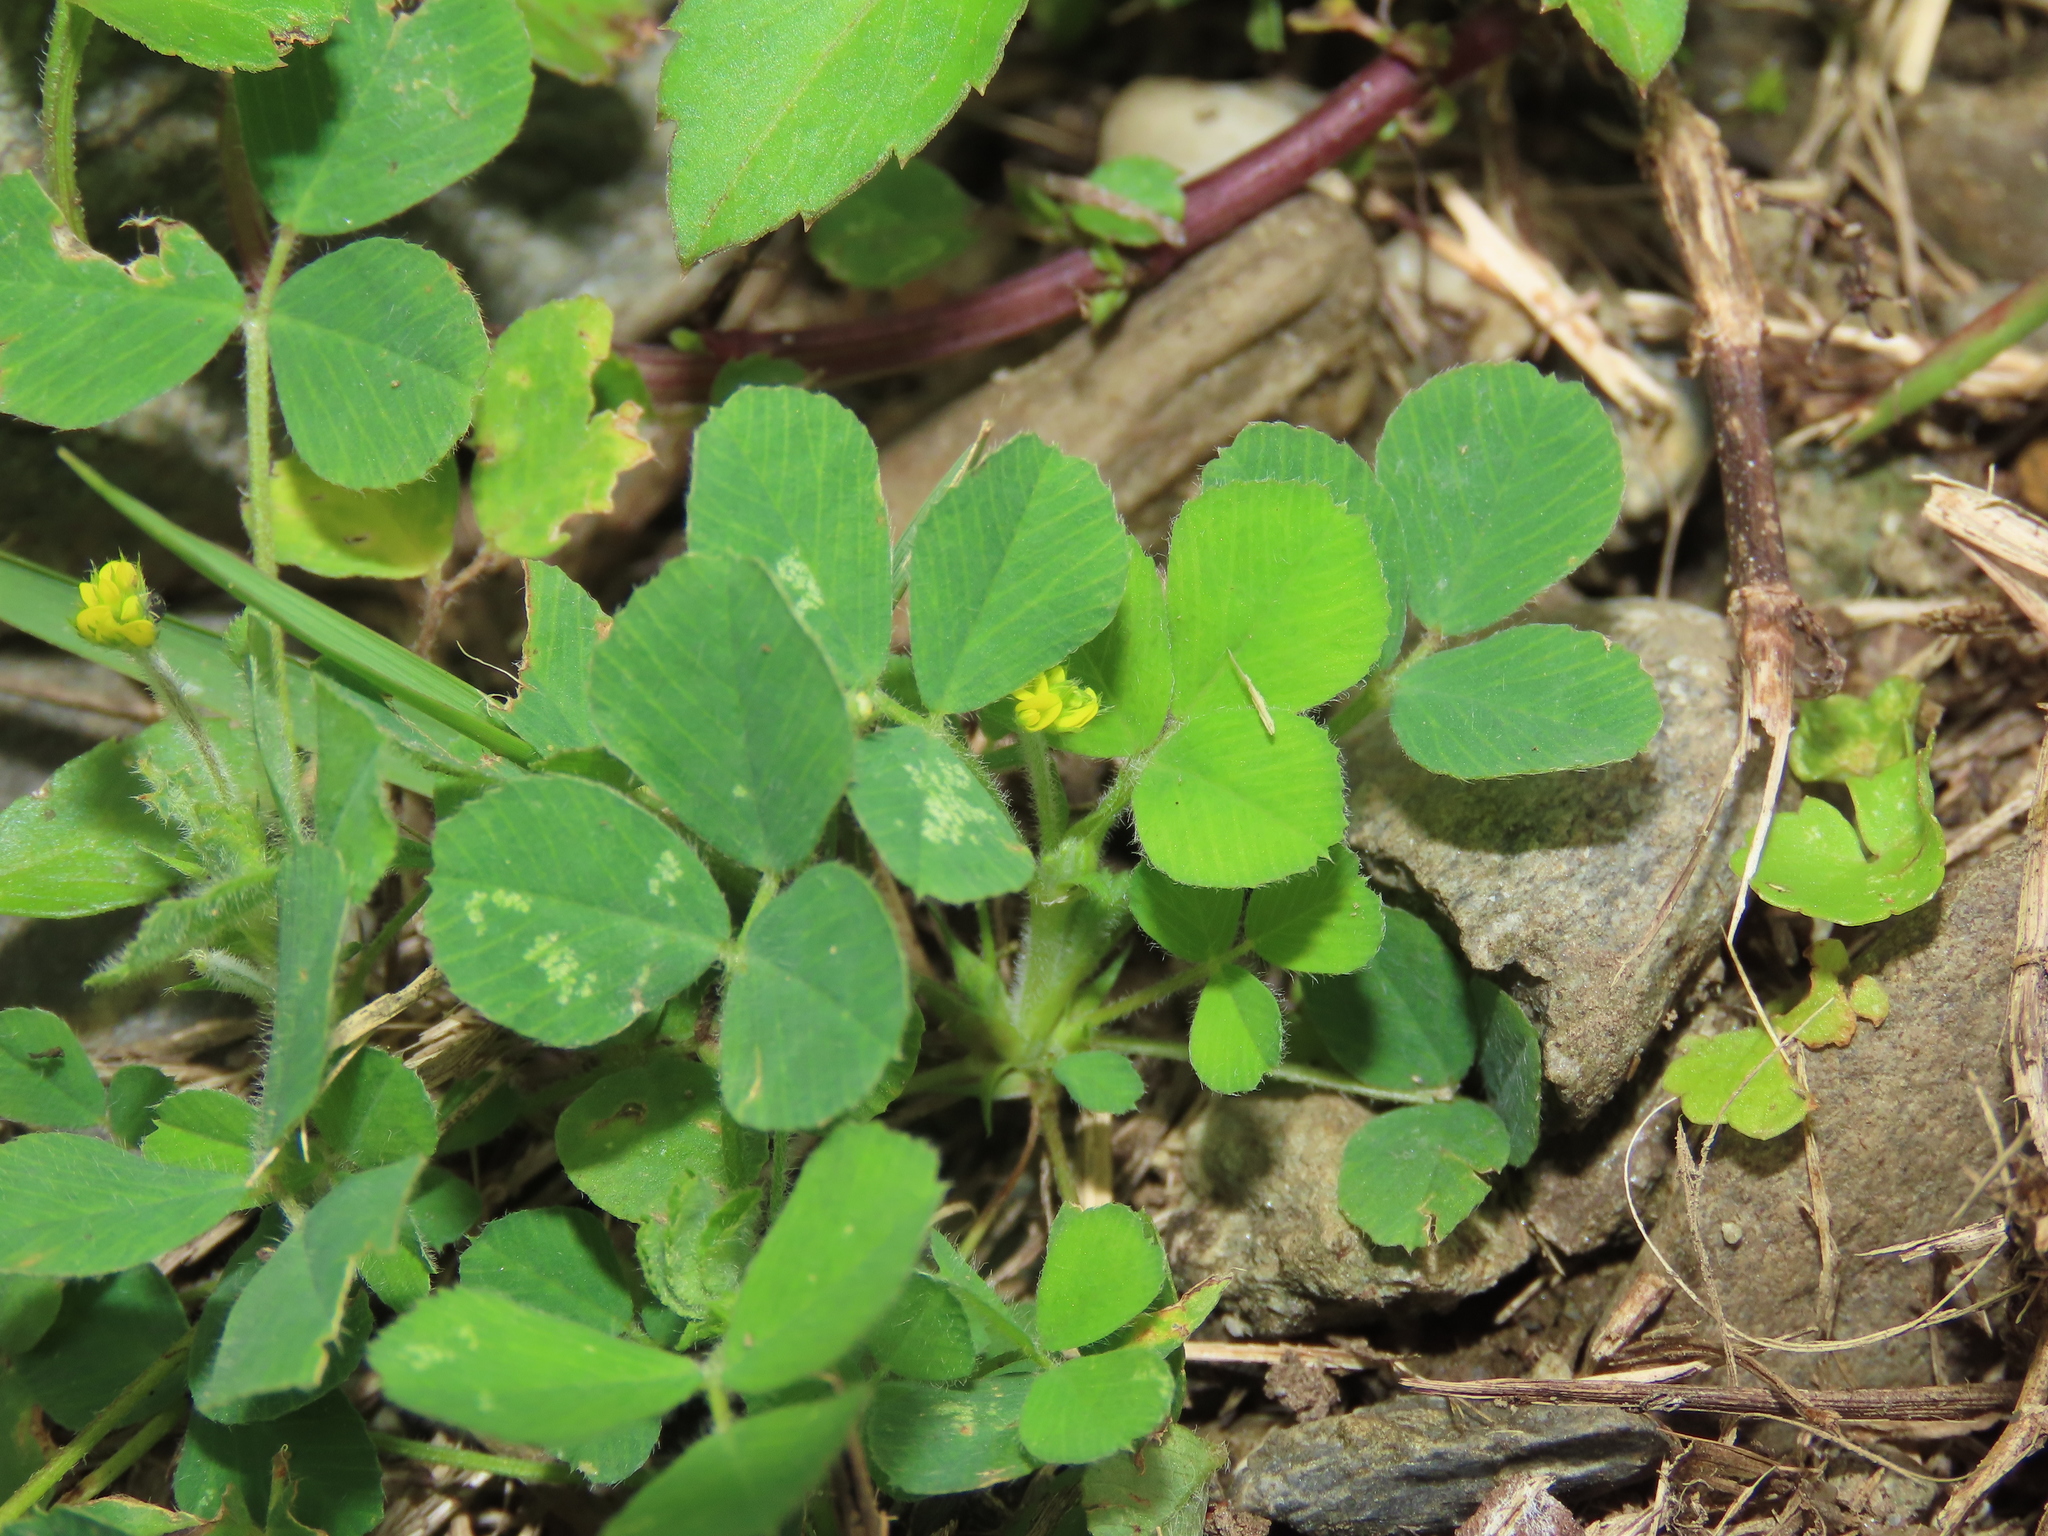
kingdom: Plantae
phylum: Tracheophyta
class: Magnoliopsida
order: Fabales
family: Fabaceae
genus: Medicago
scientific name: Medicago lupulina
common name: Black medick
